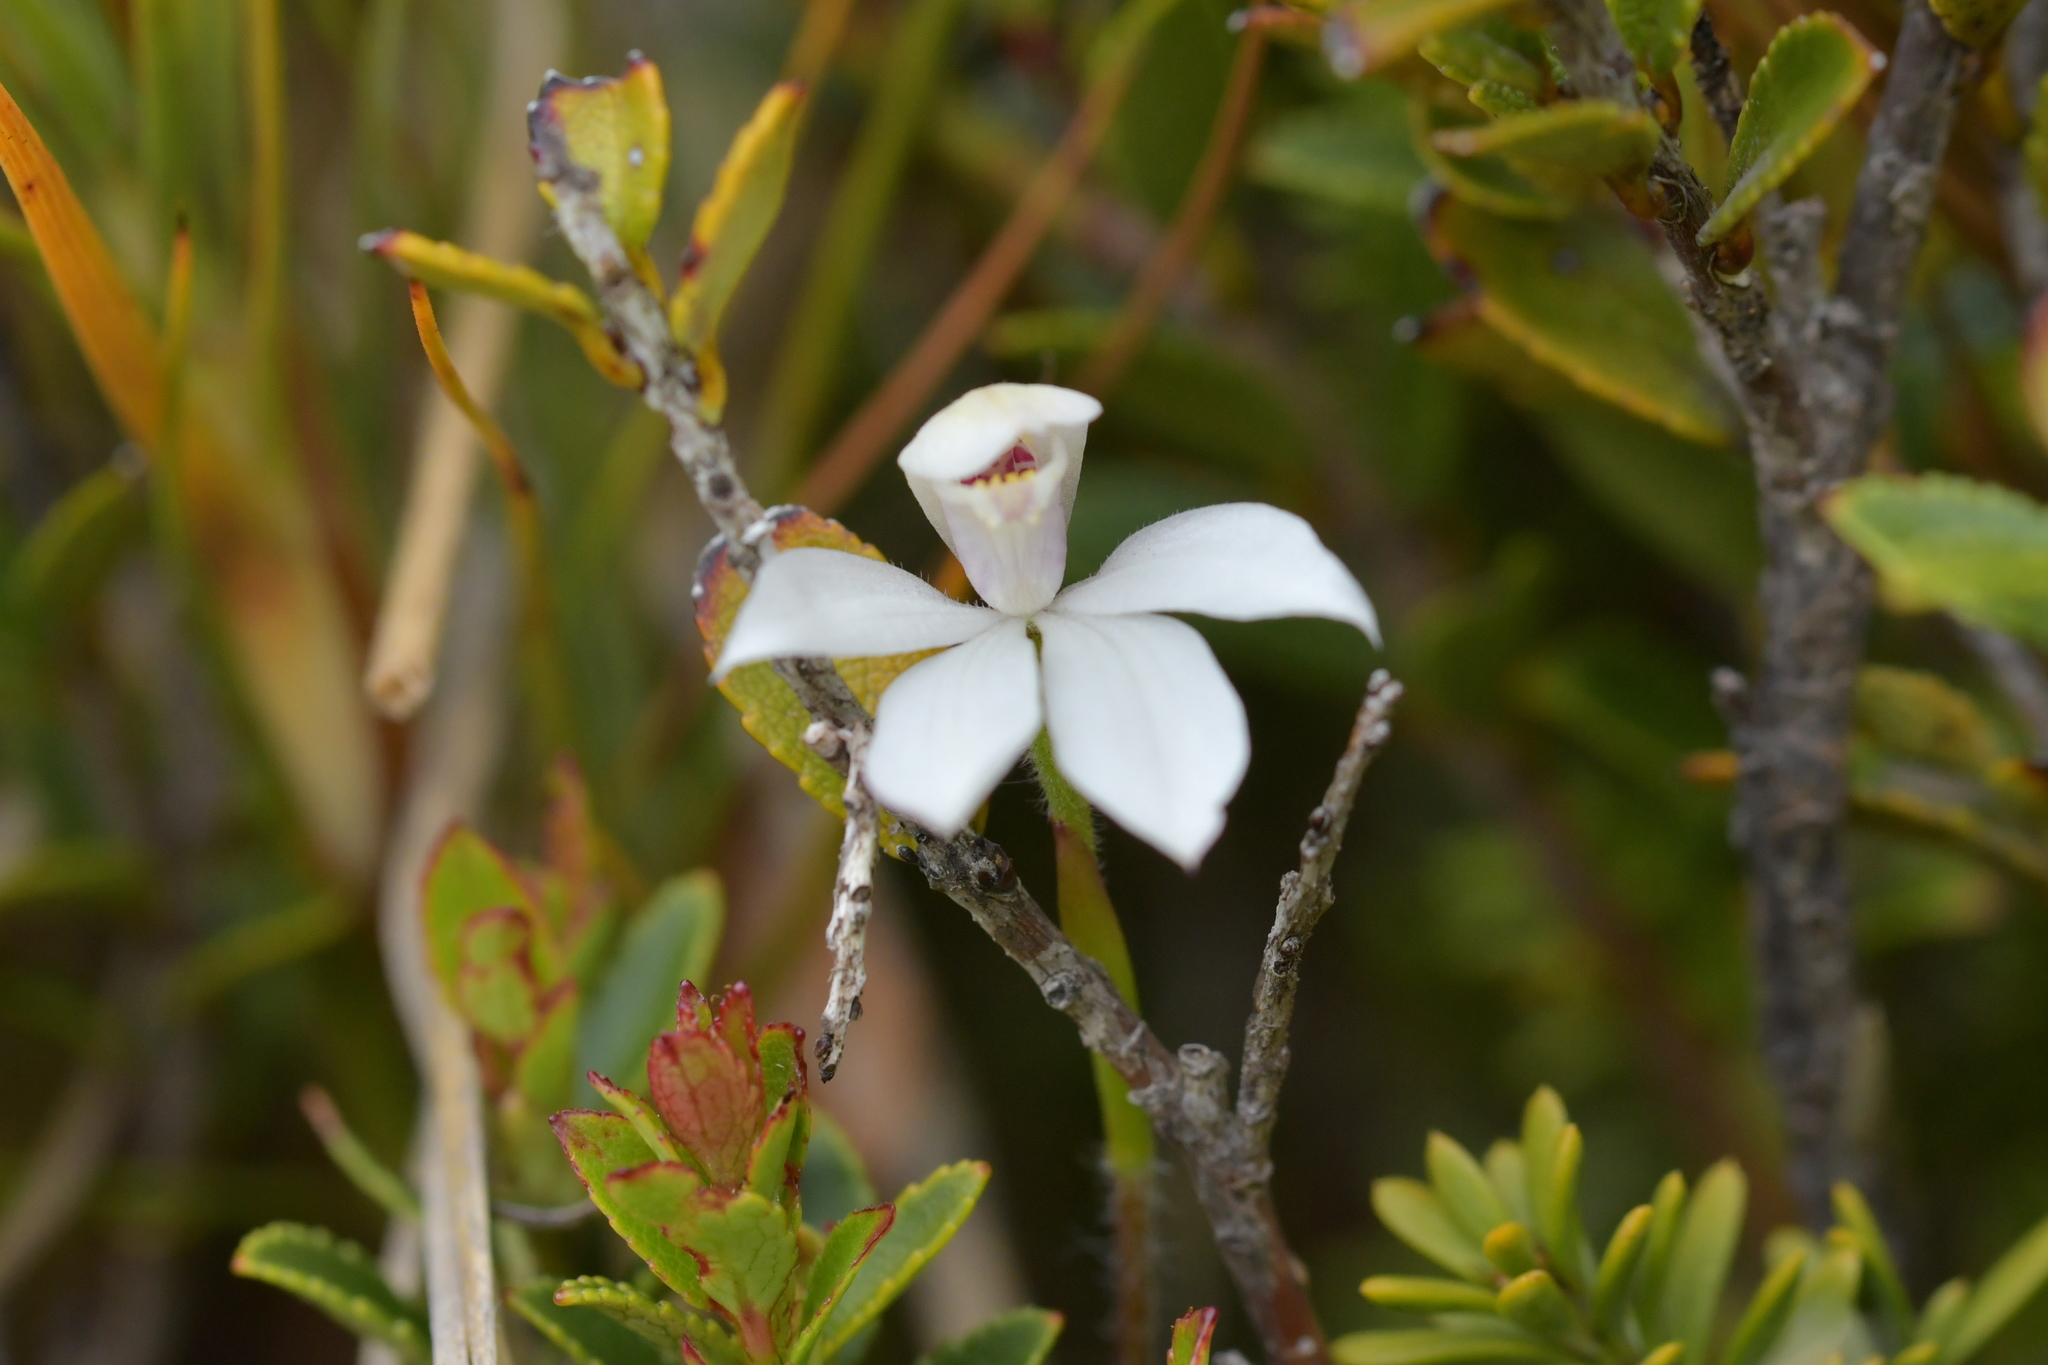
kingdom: Plantae
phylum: Tracheophyta
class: Liliopsida
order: Asparagales
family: Orchidaceae
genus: Caladenia
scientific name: Caladenia lyallii
